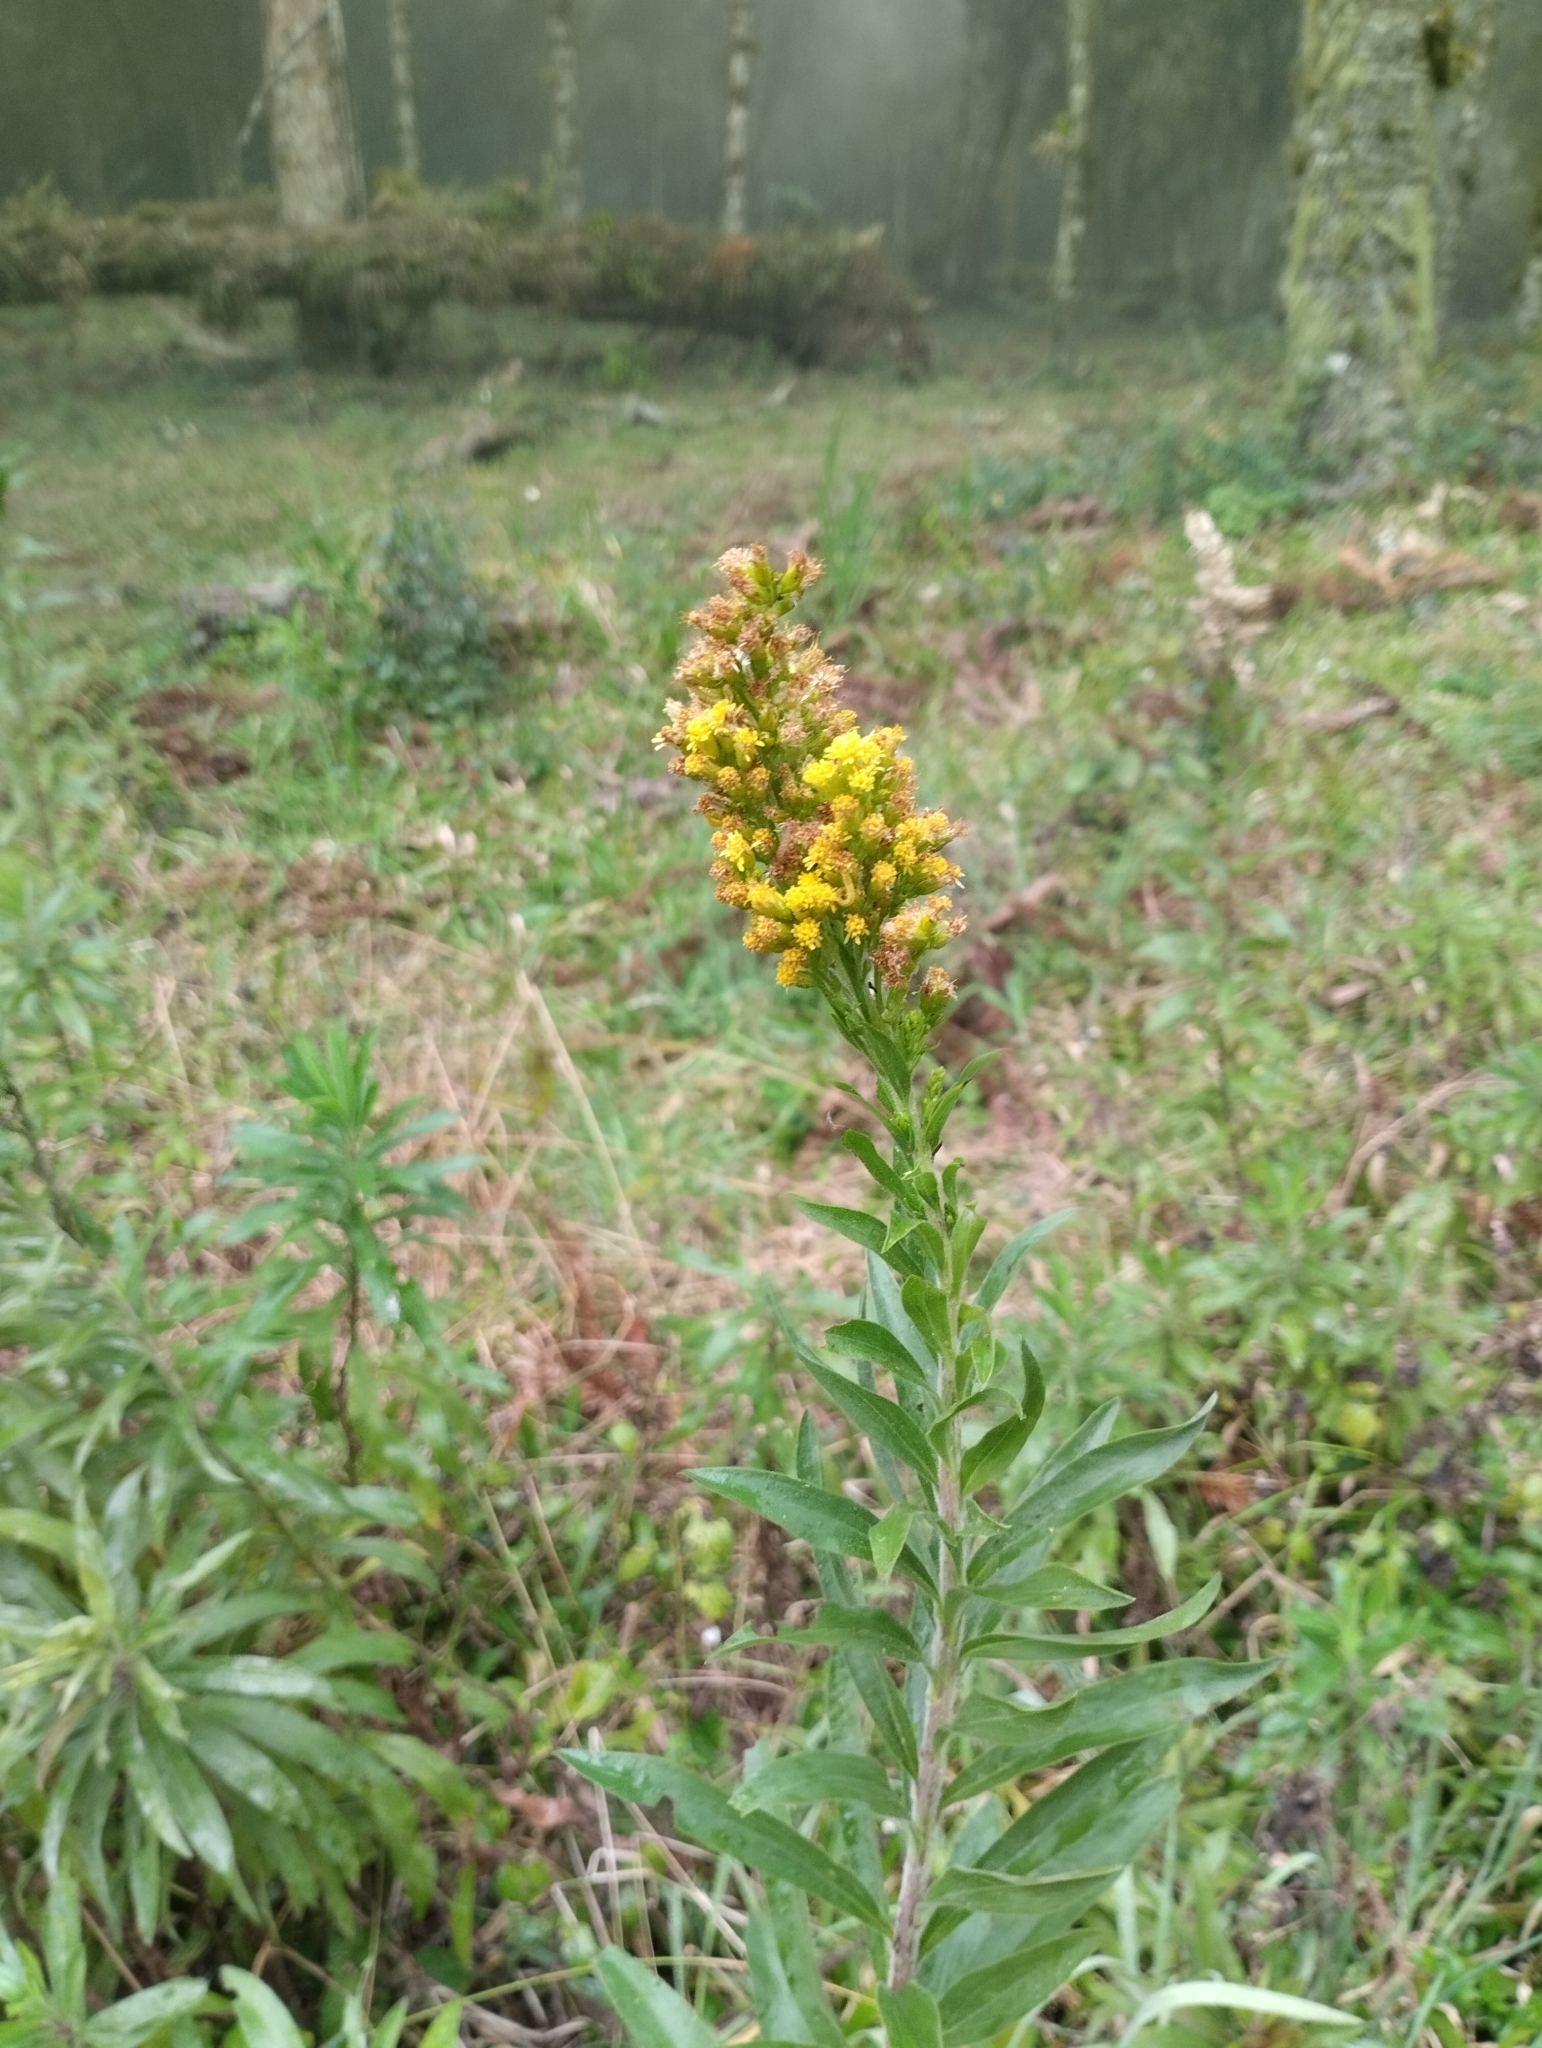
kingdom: Plantae
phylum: Tracheophyta
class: Magnoliopsida
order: Asterales
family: Asteraceae
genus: Solidago
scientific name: Solidago chilensis
